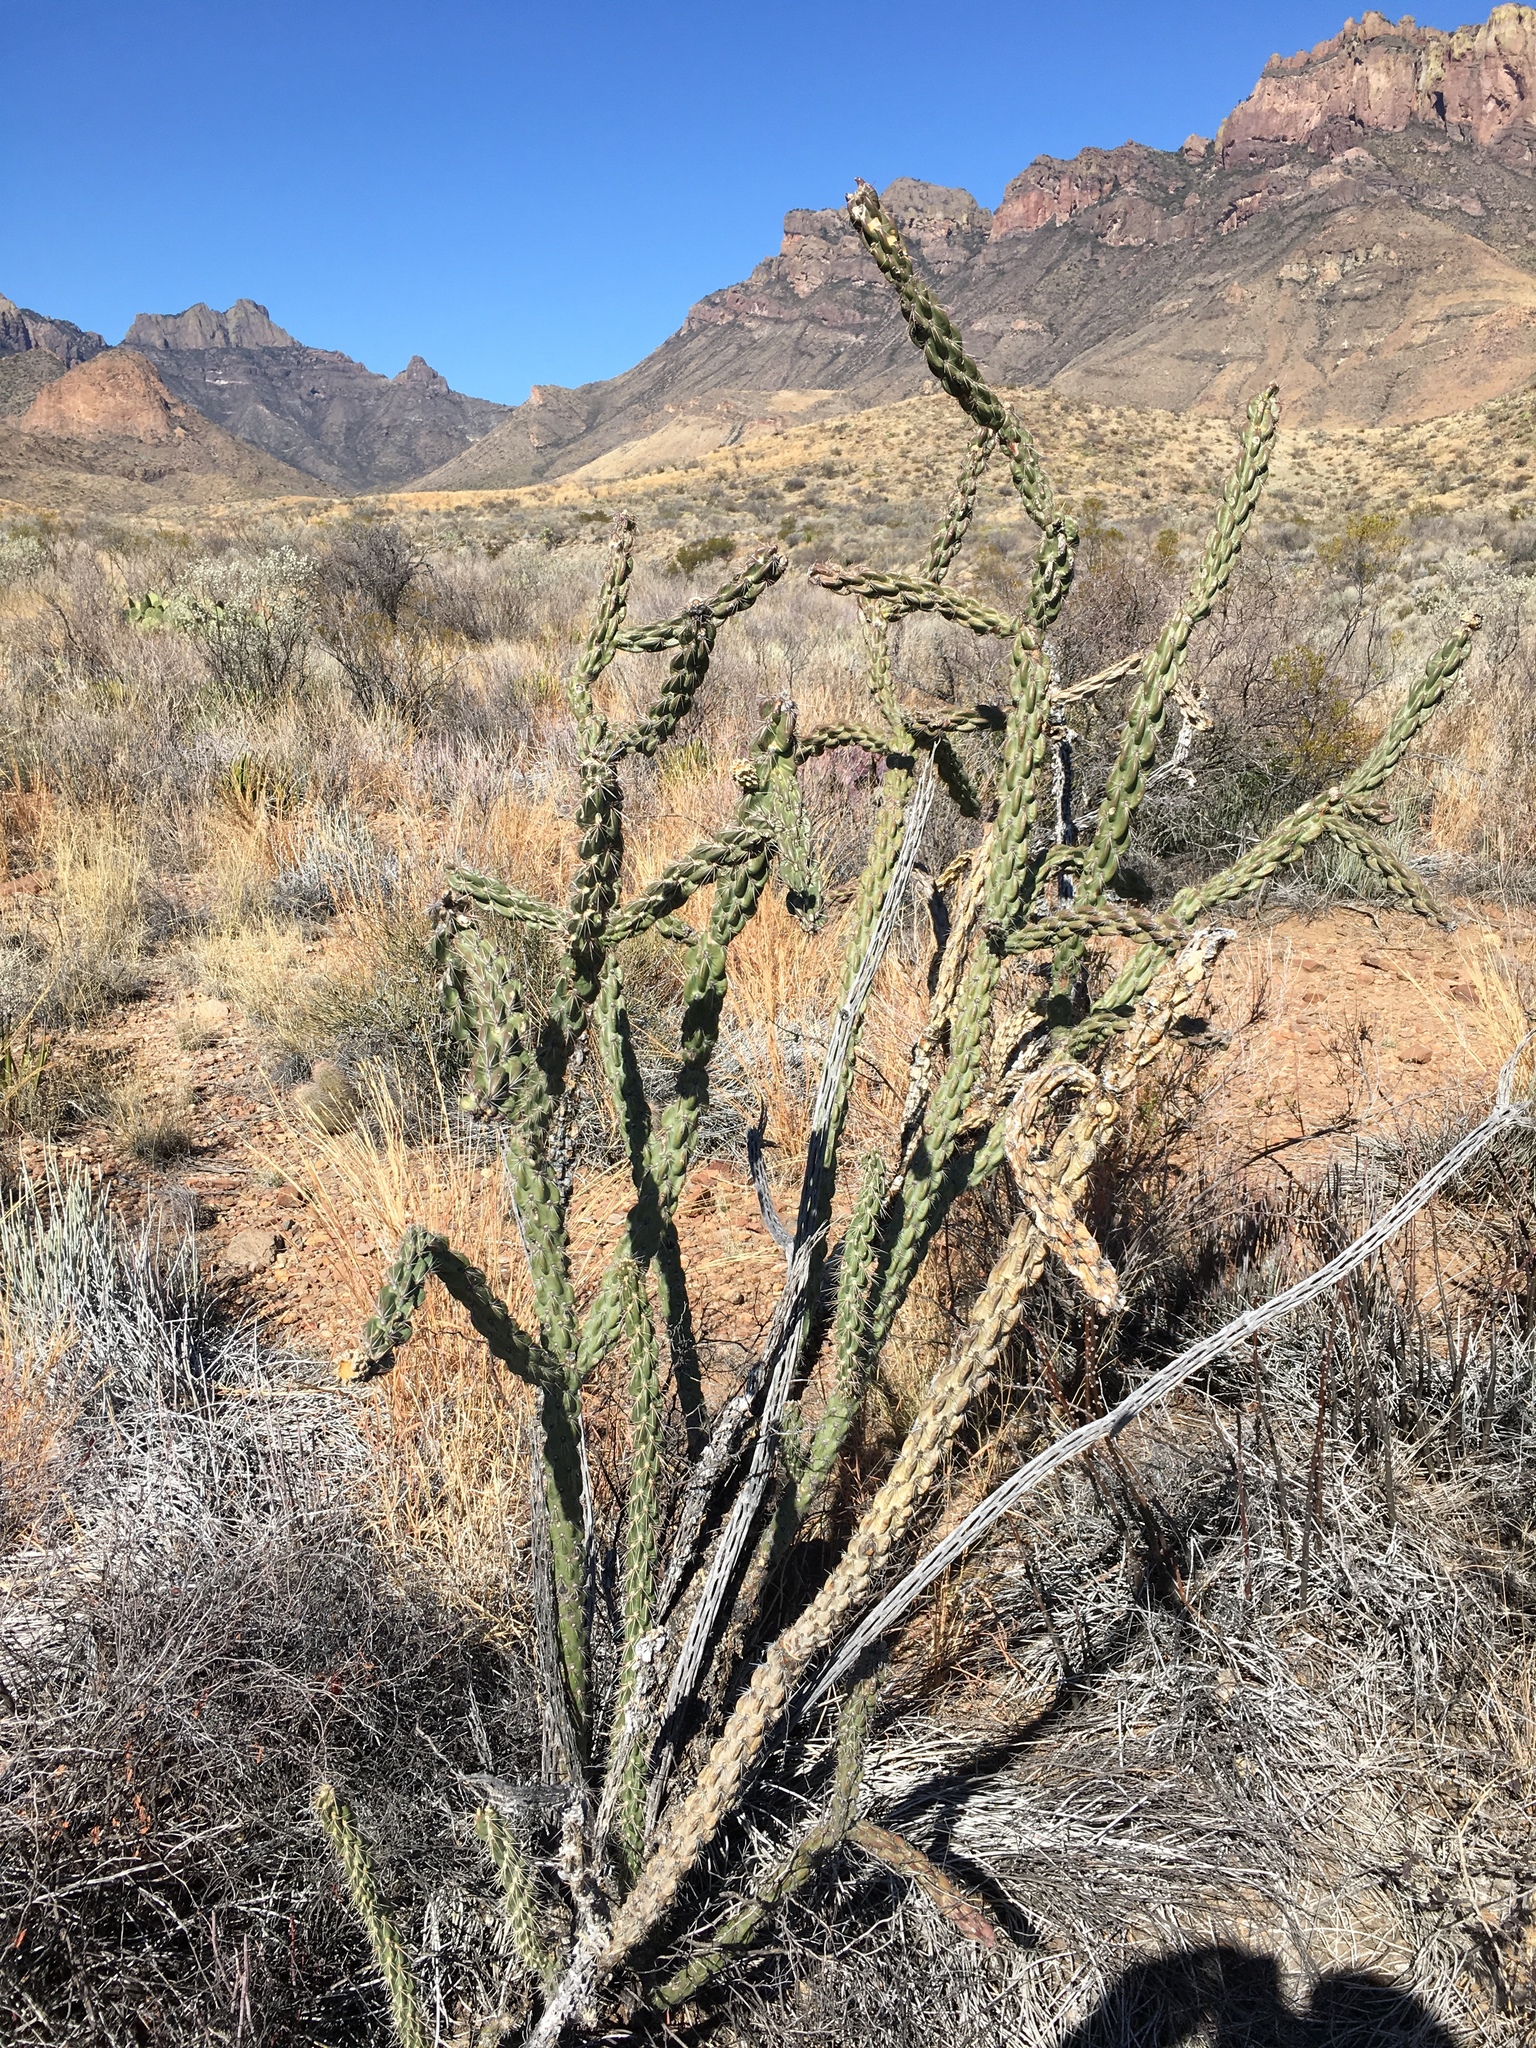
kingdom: Plantae
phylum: Tracheophyta
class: Magnoliopsida
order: Caryophyllales
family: Cactaceae
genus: Cylindropuntia
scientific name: Cylindropuntia imbricata
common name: Candelabrum cactus
